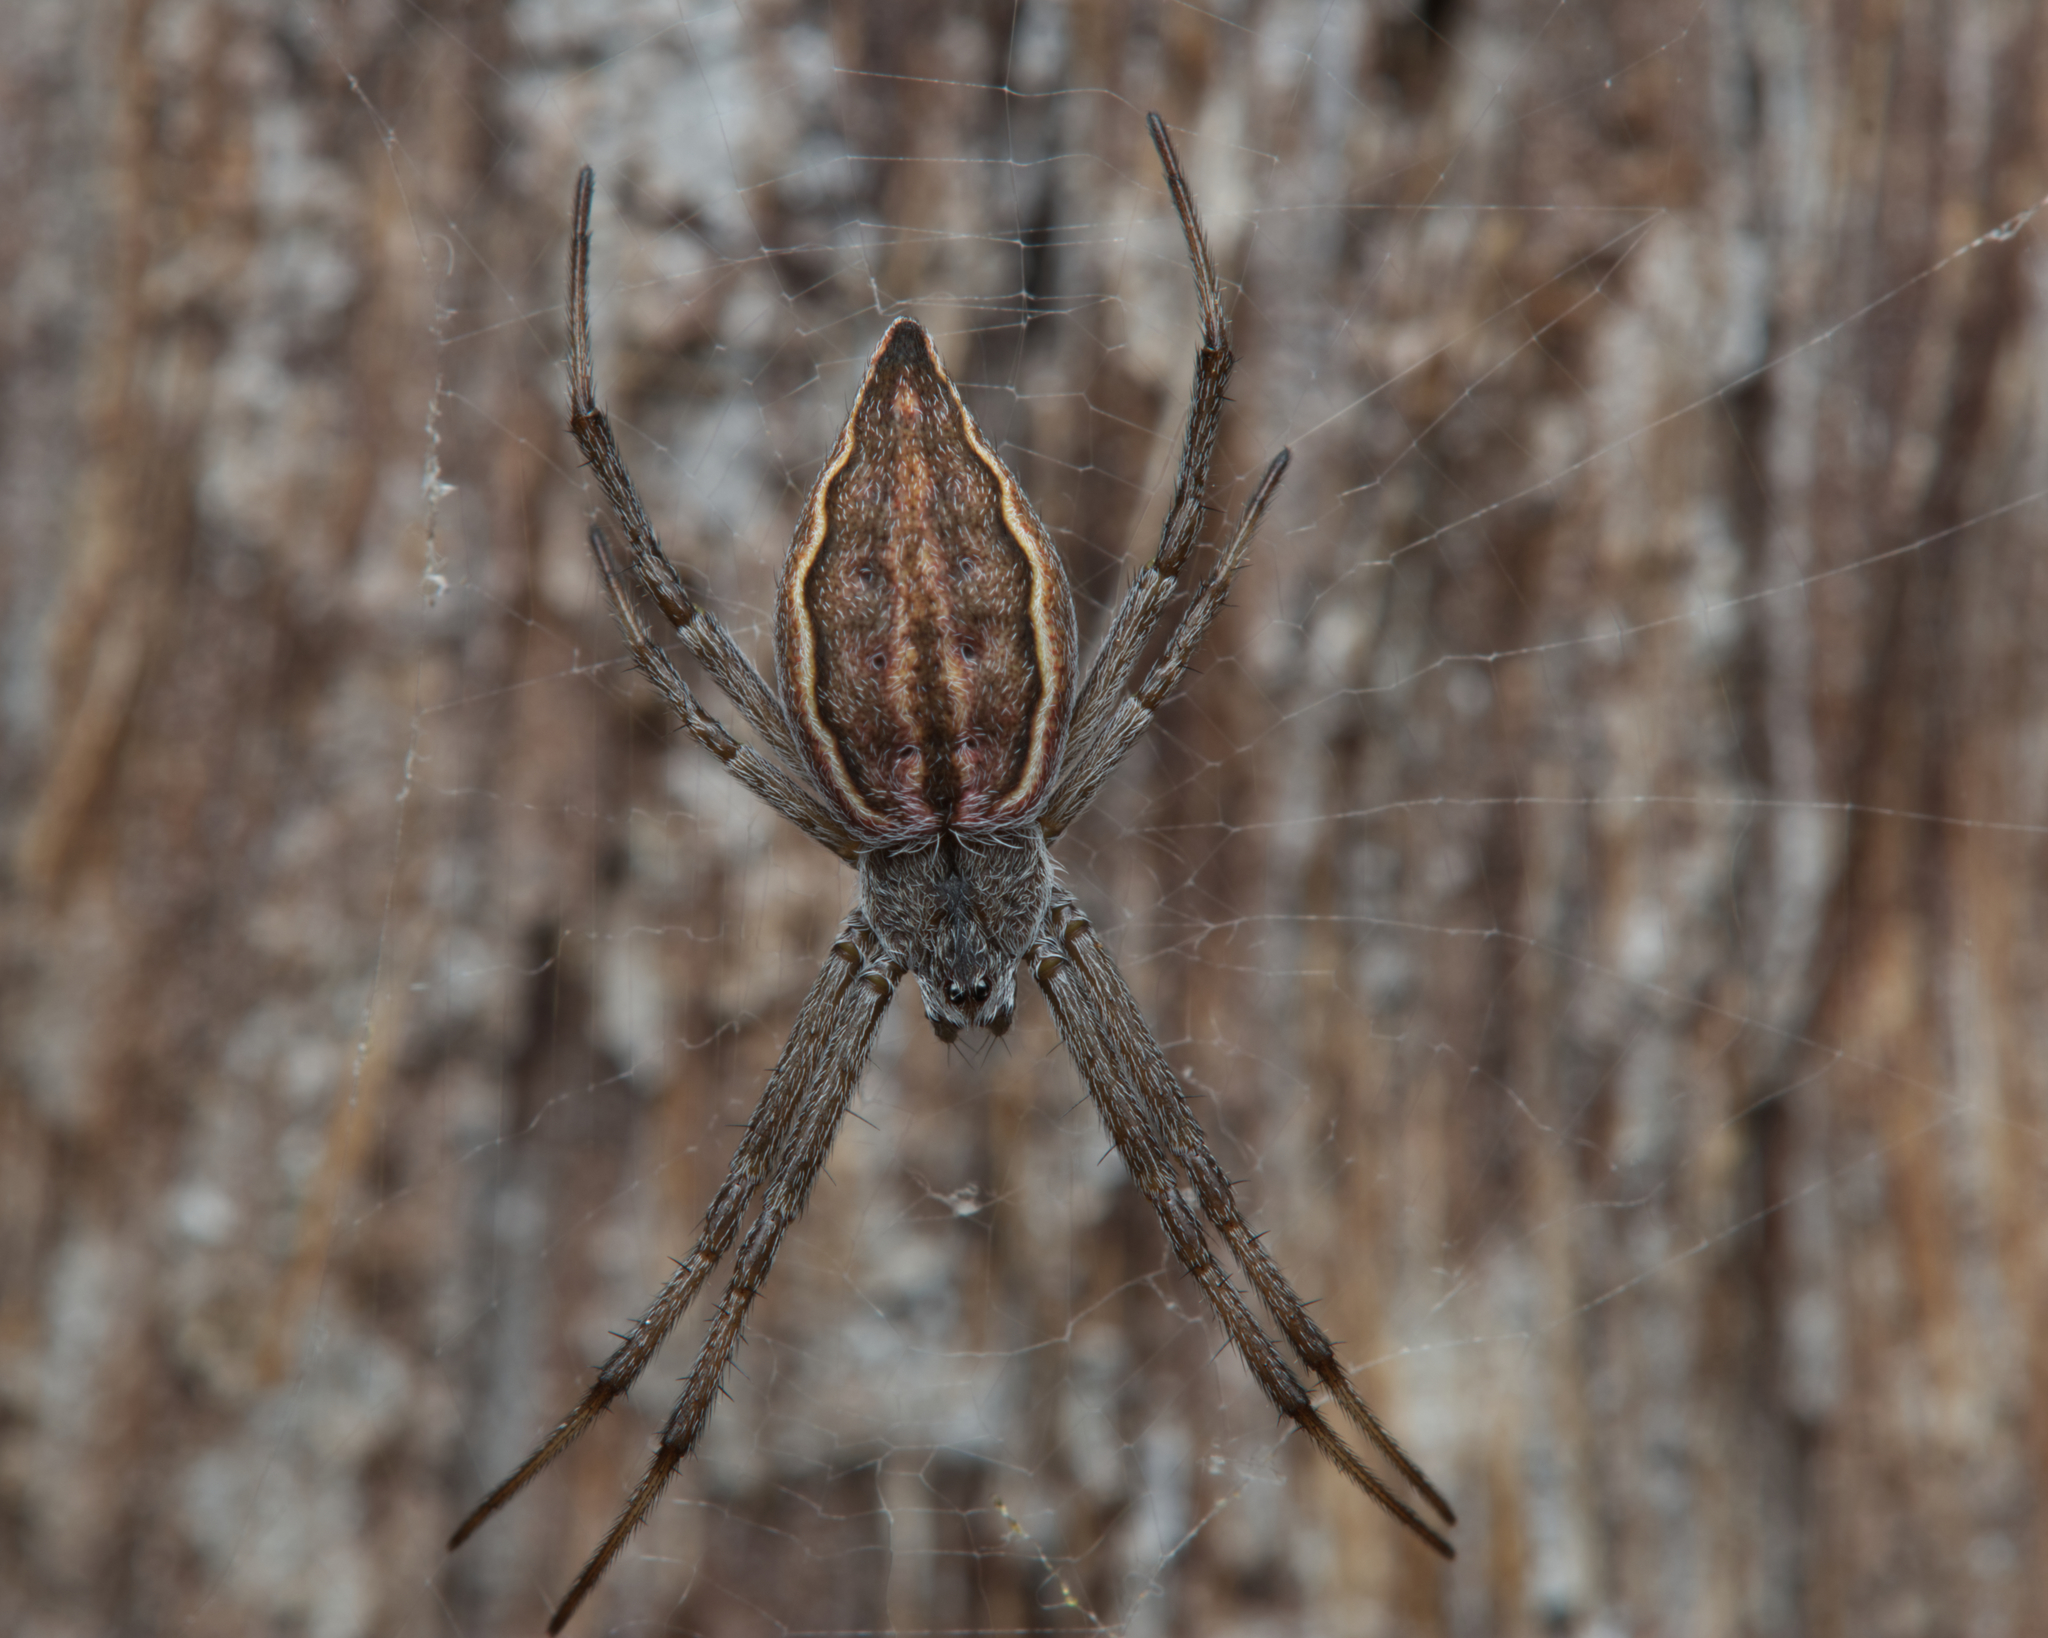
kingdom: Animalia
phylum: Arthropoda
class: Arachnida
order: Araneae
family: Araneidae
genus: Argiope
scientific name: Argiope ocyaloides
